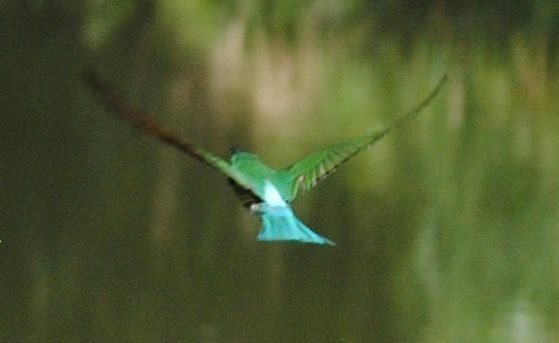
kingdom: Animalia
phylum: Chordata
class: Aves
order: Coraciiformes
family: Meropidae
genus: Merops
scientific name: Merops viridis
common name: Blue-throated bee-eater
